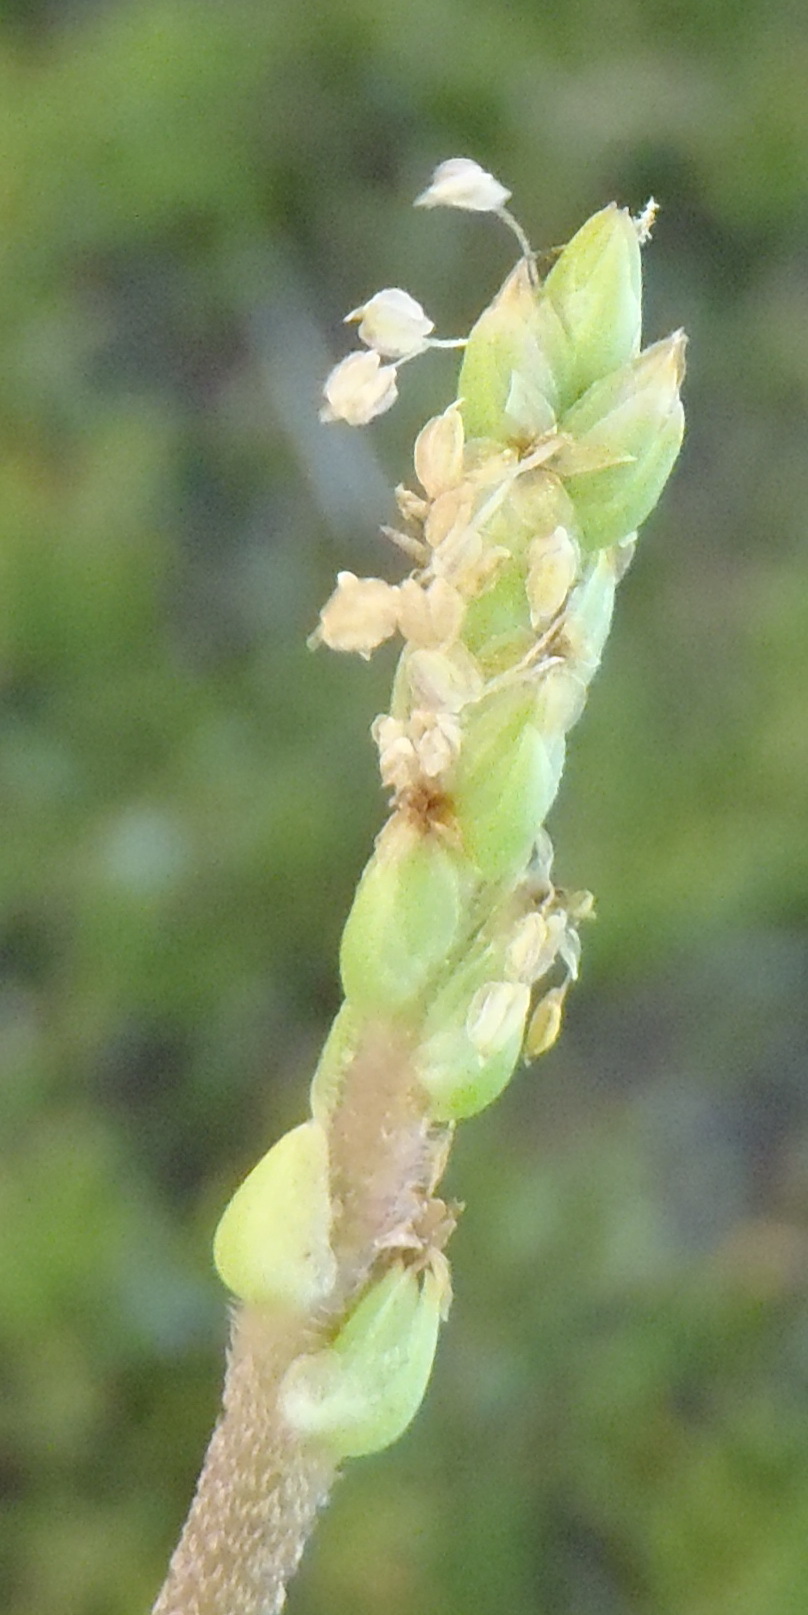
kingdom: Plantae
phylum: Tracheophyta
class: Magnoliopsida
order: Lamiales
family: Plantaginaceae
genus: Plantago
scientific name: Plantago carnosa
